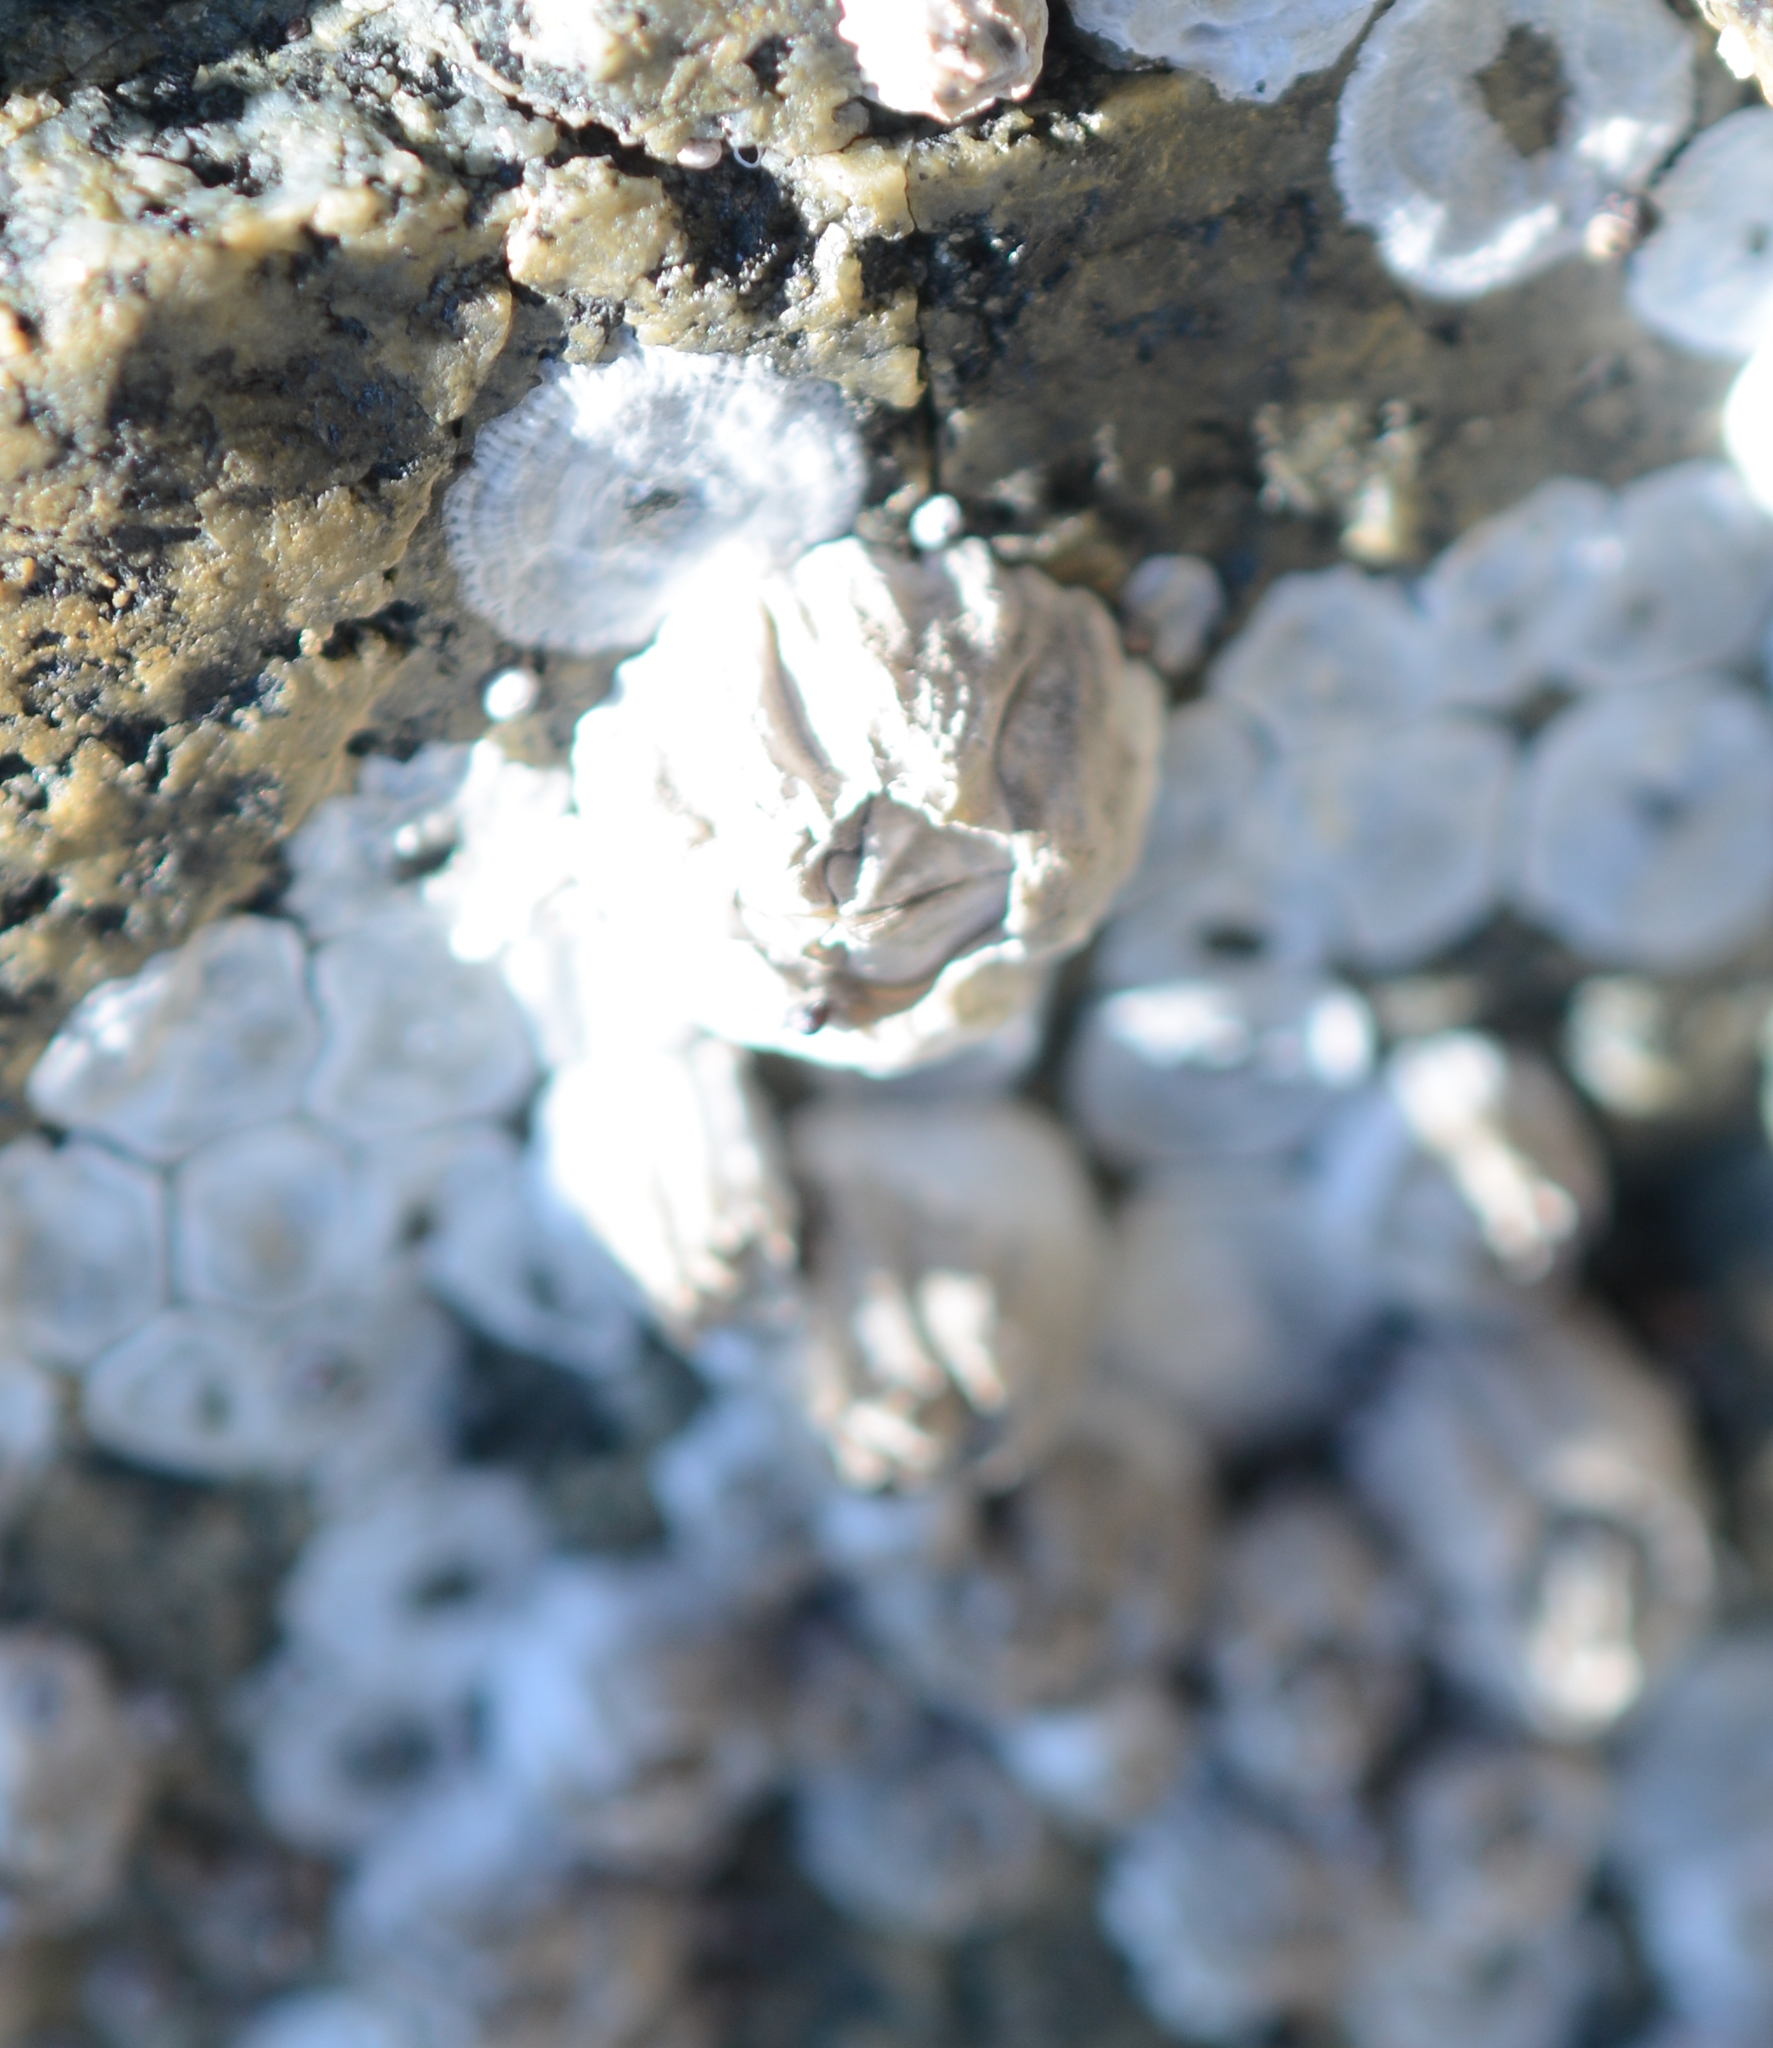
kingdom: Animalia
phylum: Arthropoda
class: Maxillopoda
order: Sessilia
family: Balanidae
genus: Balanus
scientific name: Balanus glandula
